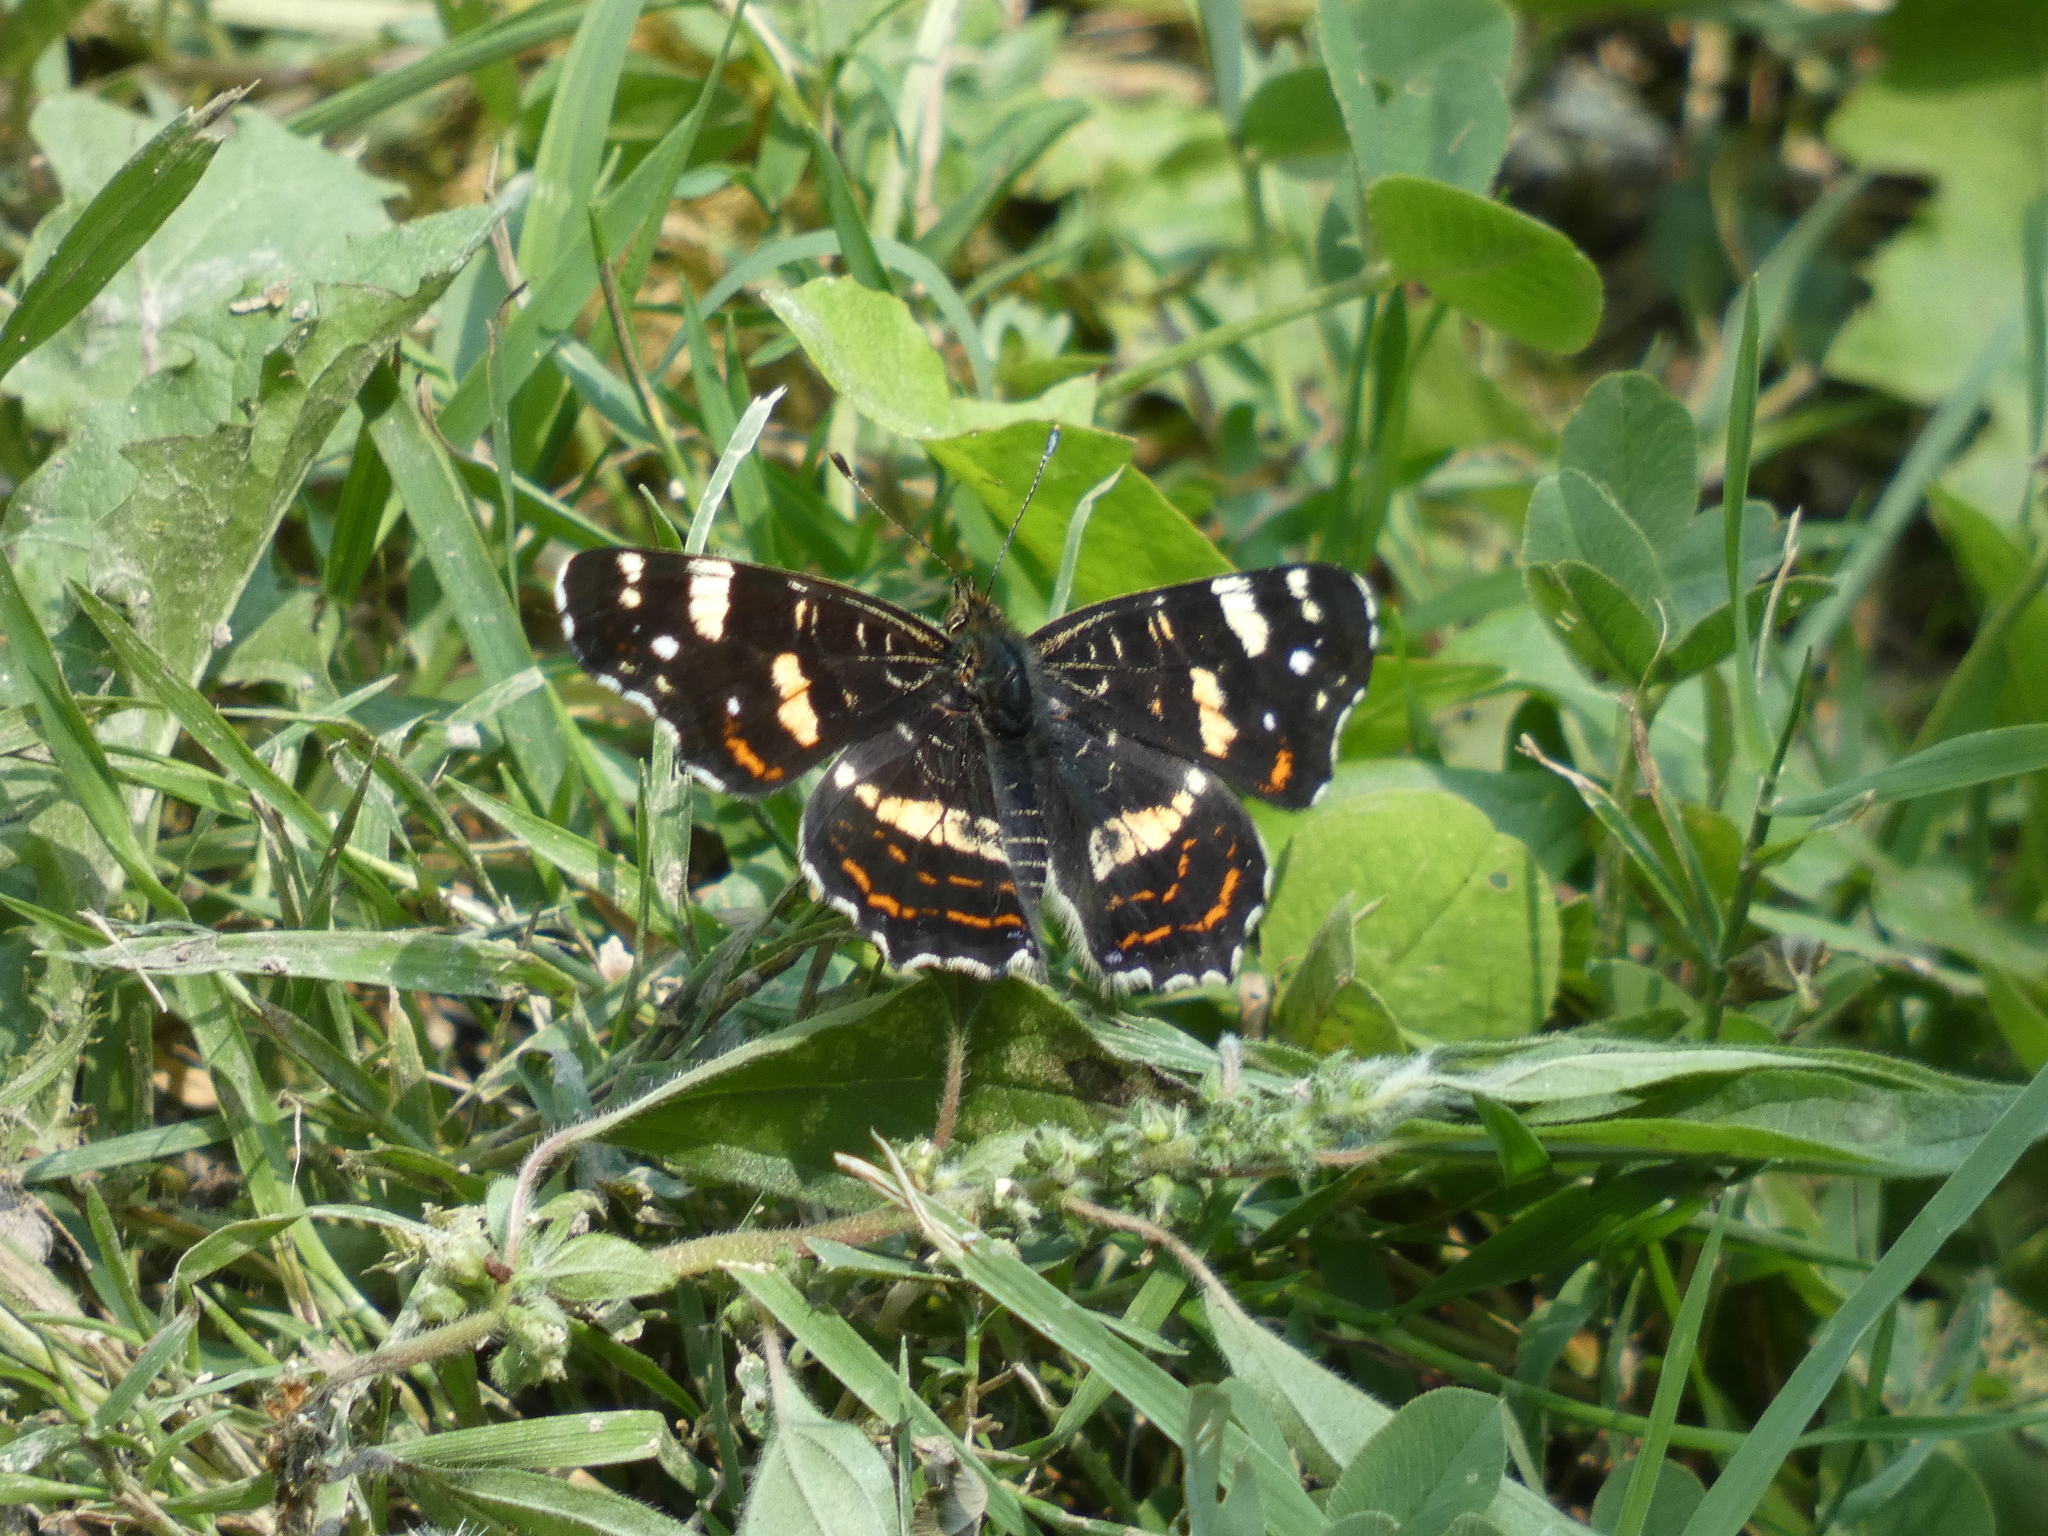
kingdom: Animalia
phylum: Arthropoda
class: Insecta
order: Lepidoptera
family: Nymphalidae
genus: Araschnia
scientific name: Araschnia levana
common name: Map butterfly
